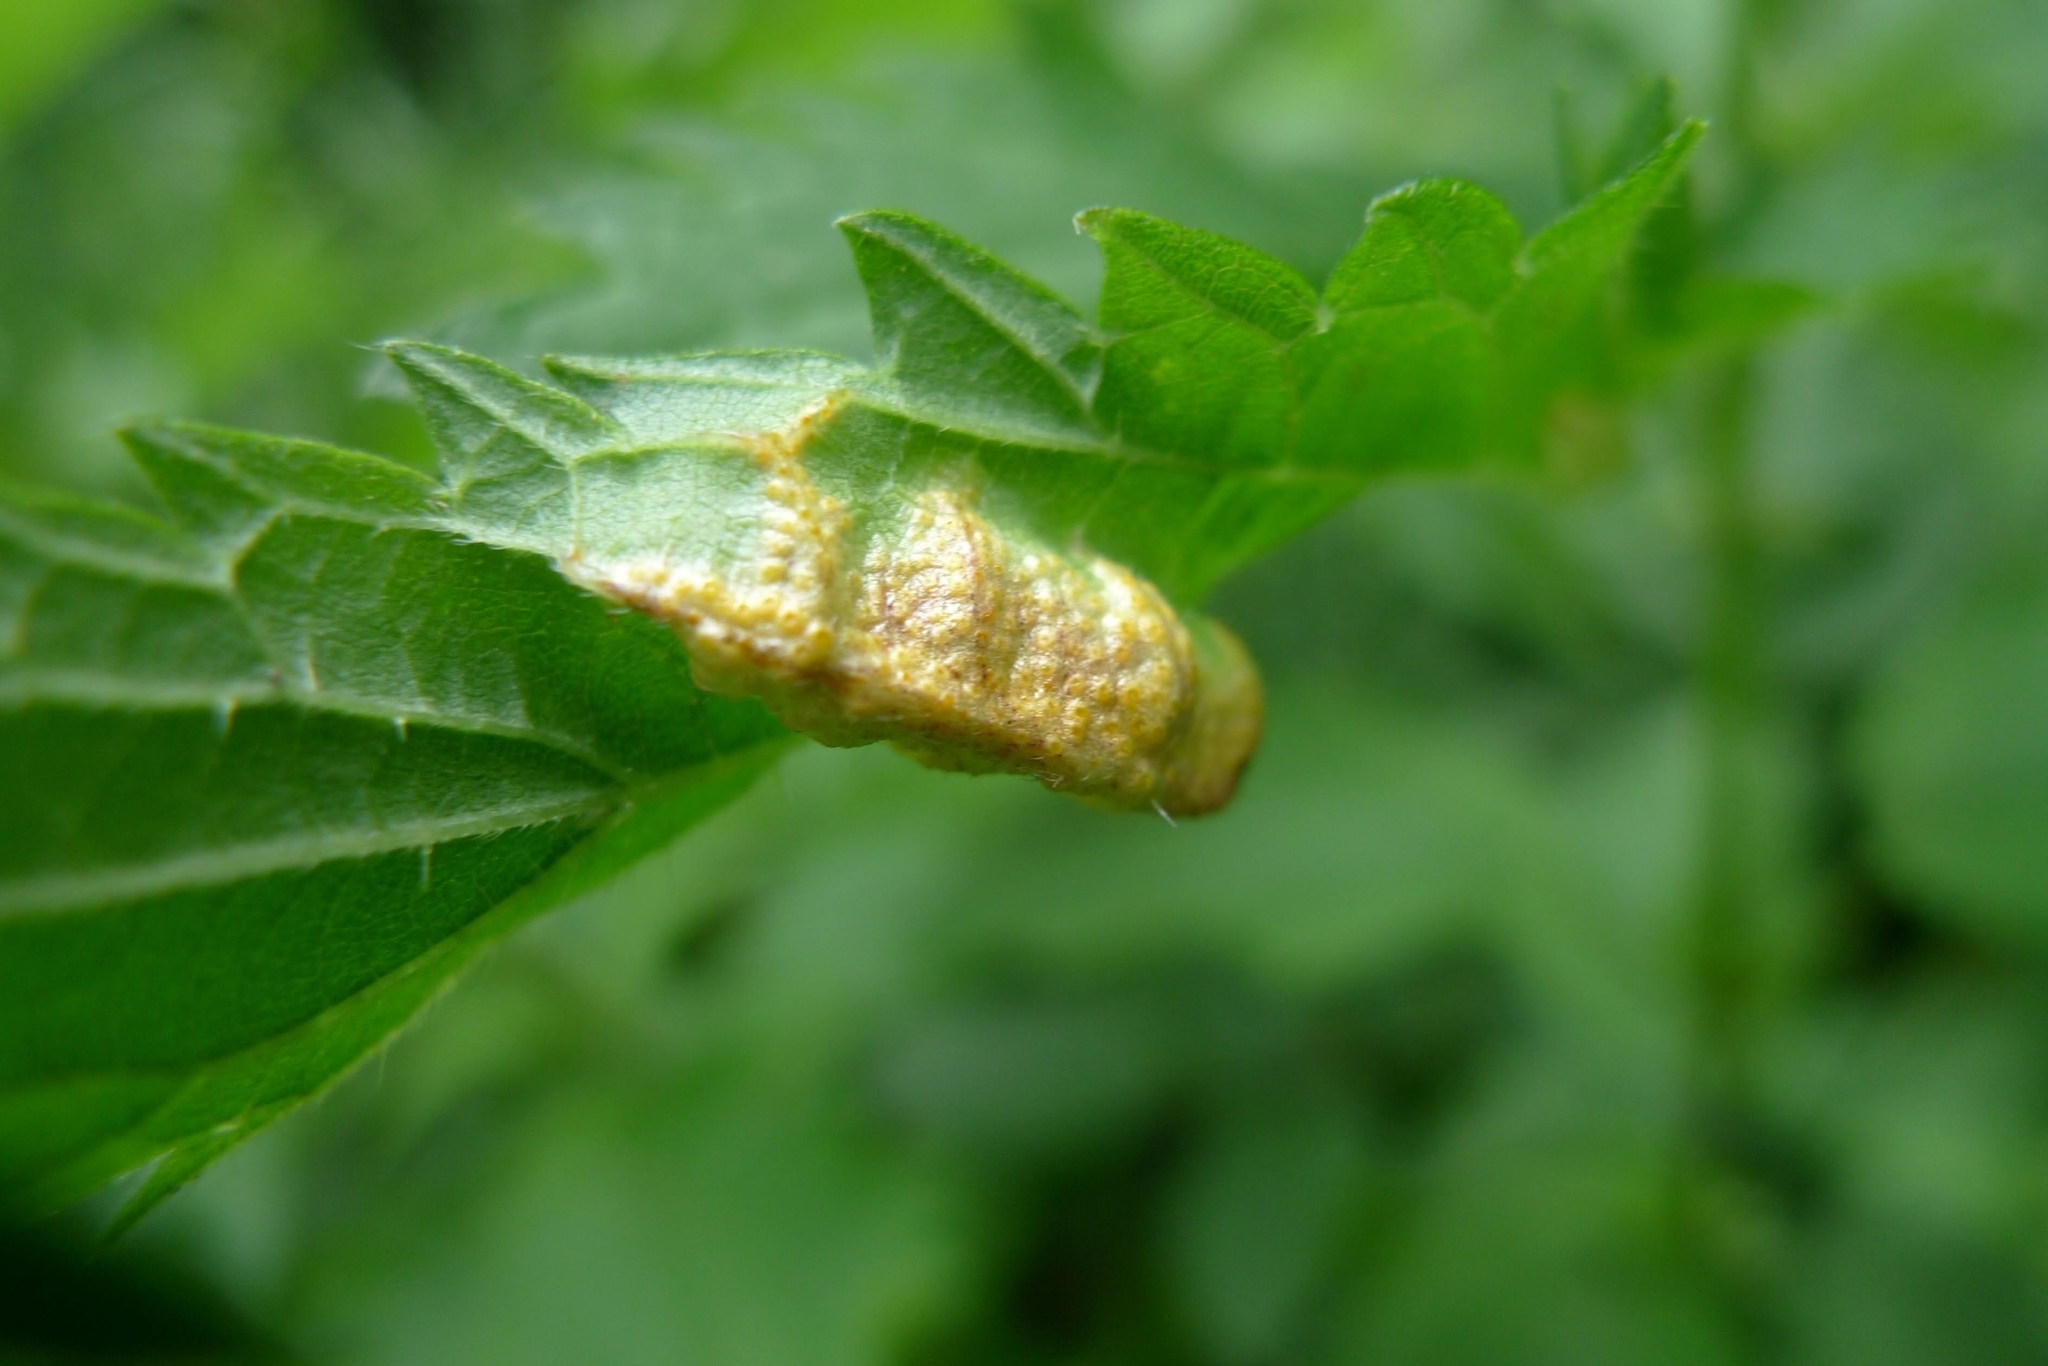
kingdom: Fungi
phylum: Basidiomycota
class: Pucciniomycetes
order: Pucciniales
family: Pucciniaceae
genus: Puccinia
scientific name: Puccinia urticata
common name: Nettle clustercup rust fungus
